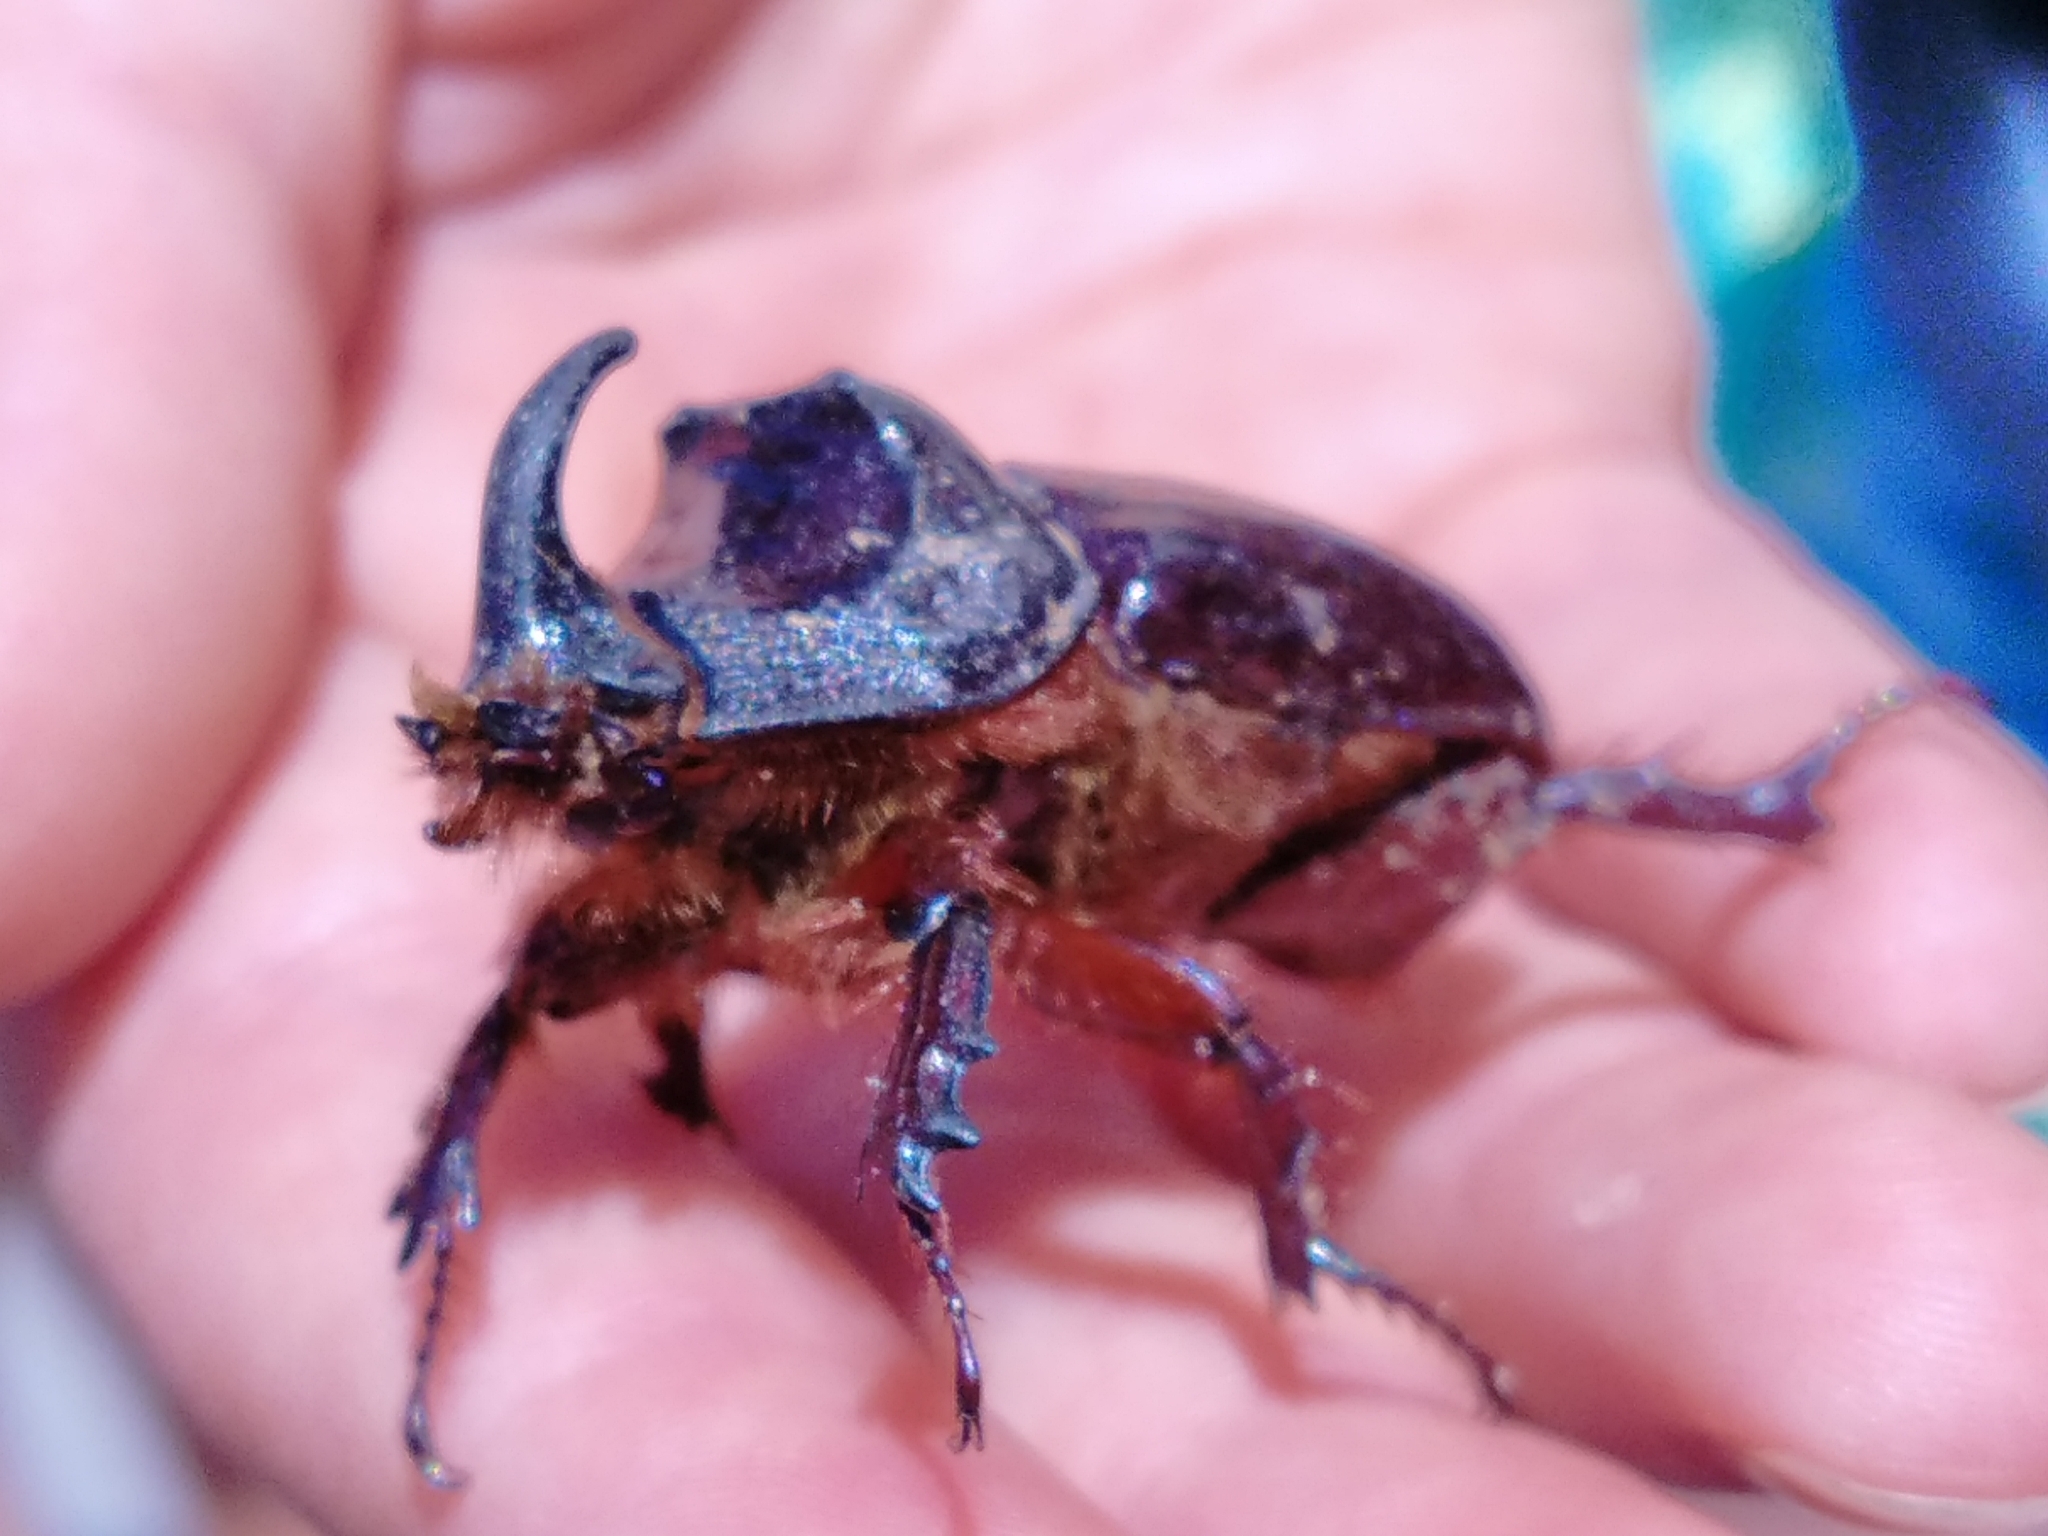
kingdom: Animalia
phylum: Arthropoda
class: Insecta
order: Coleoptera
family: Scarabaeidae
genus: Oryctes
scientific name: Oryctes nasicornis
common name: European rhinoceros beetle
